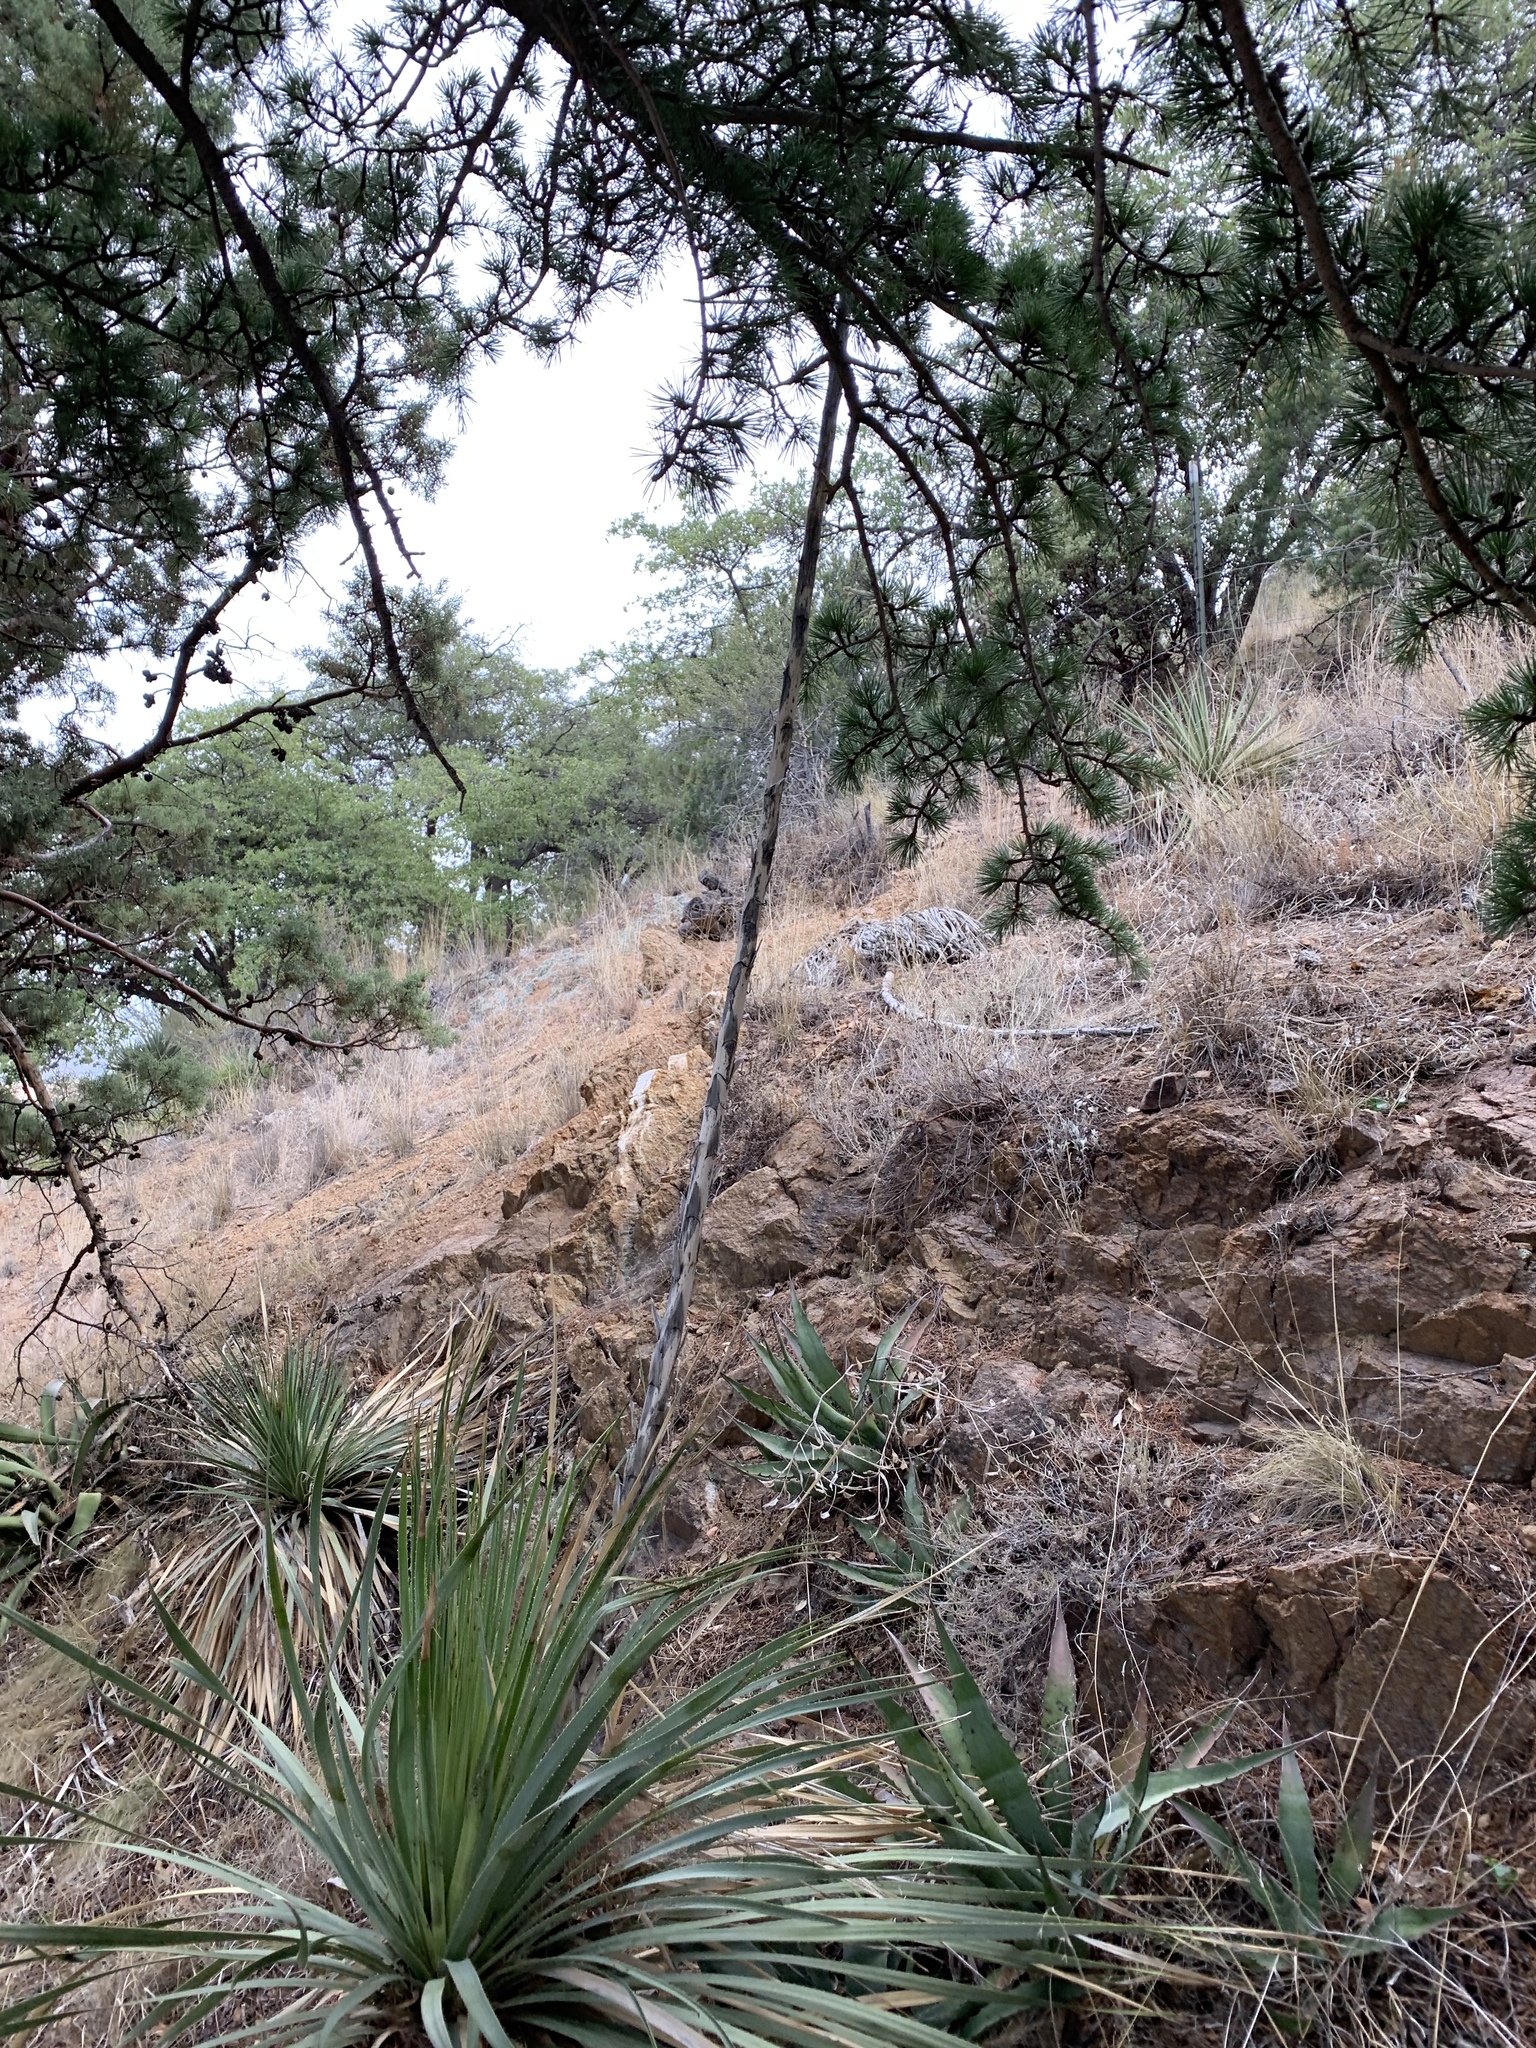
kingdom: Plantae
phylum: Tracheophyta
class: Liliopsida
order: Asparagales
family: Asparagaceae
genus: Dasylirion
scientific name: Dasylirion wheeleri
